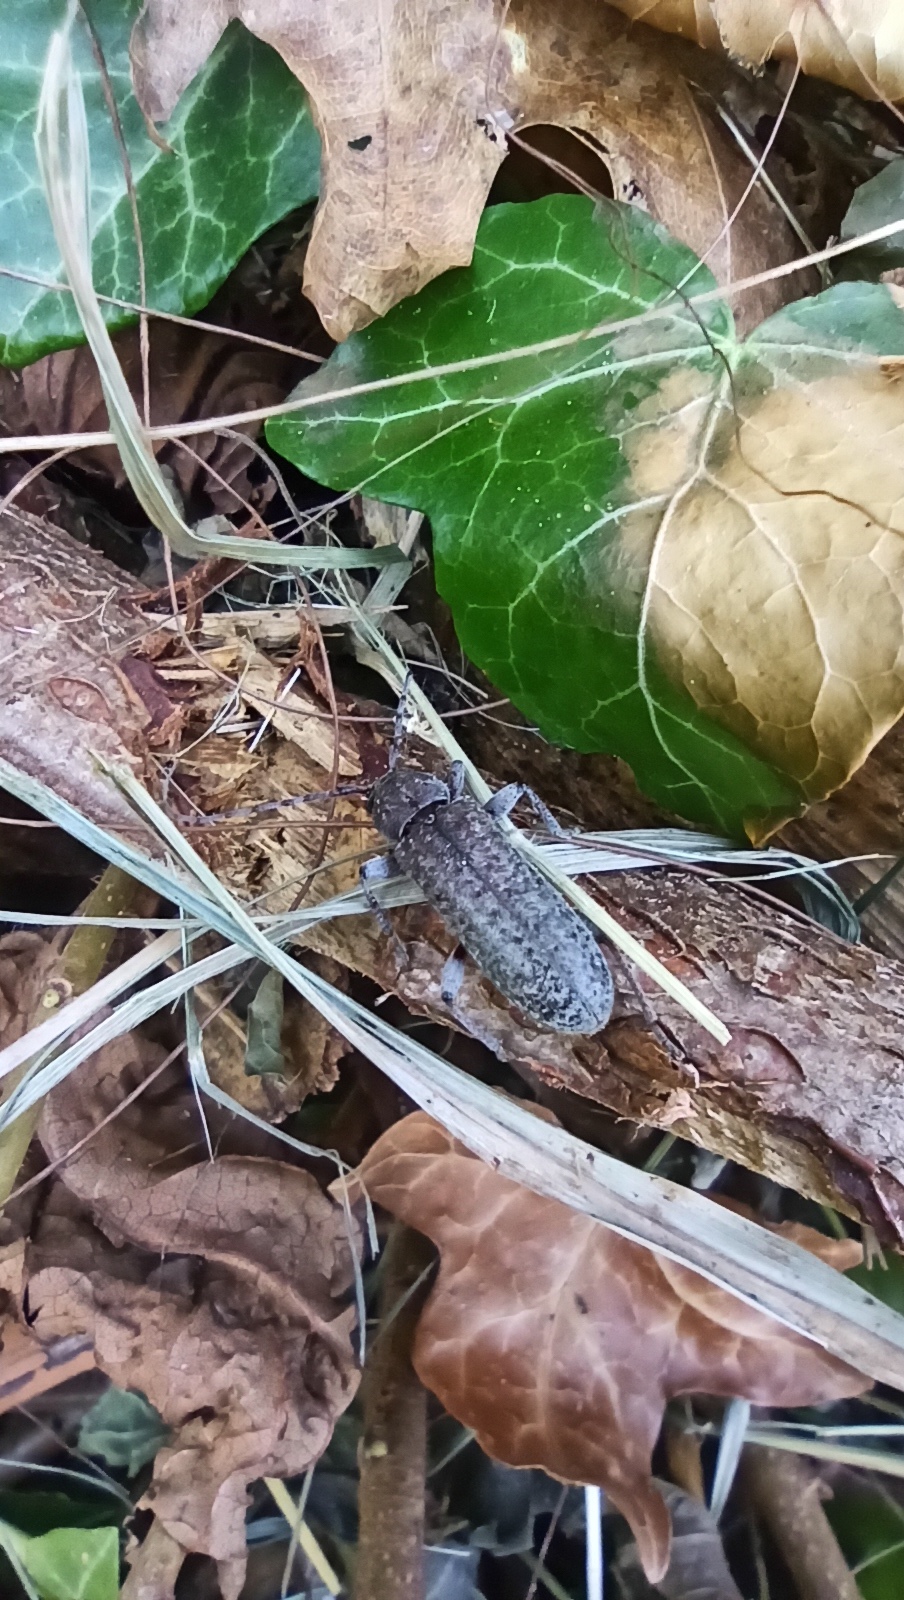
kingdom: Animalia
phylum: Arthropoda
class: Insecta
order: Coleoptera
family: Cerambycidae
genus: Trichoferus
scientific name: Trichoferus holosericeus
